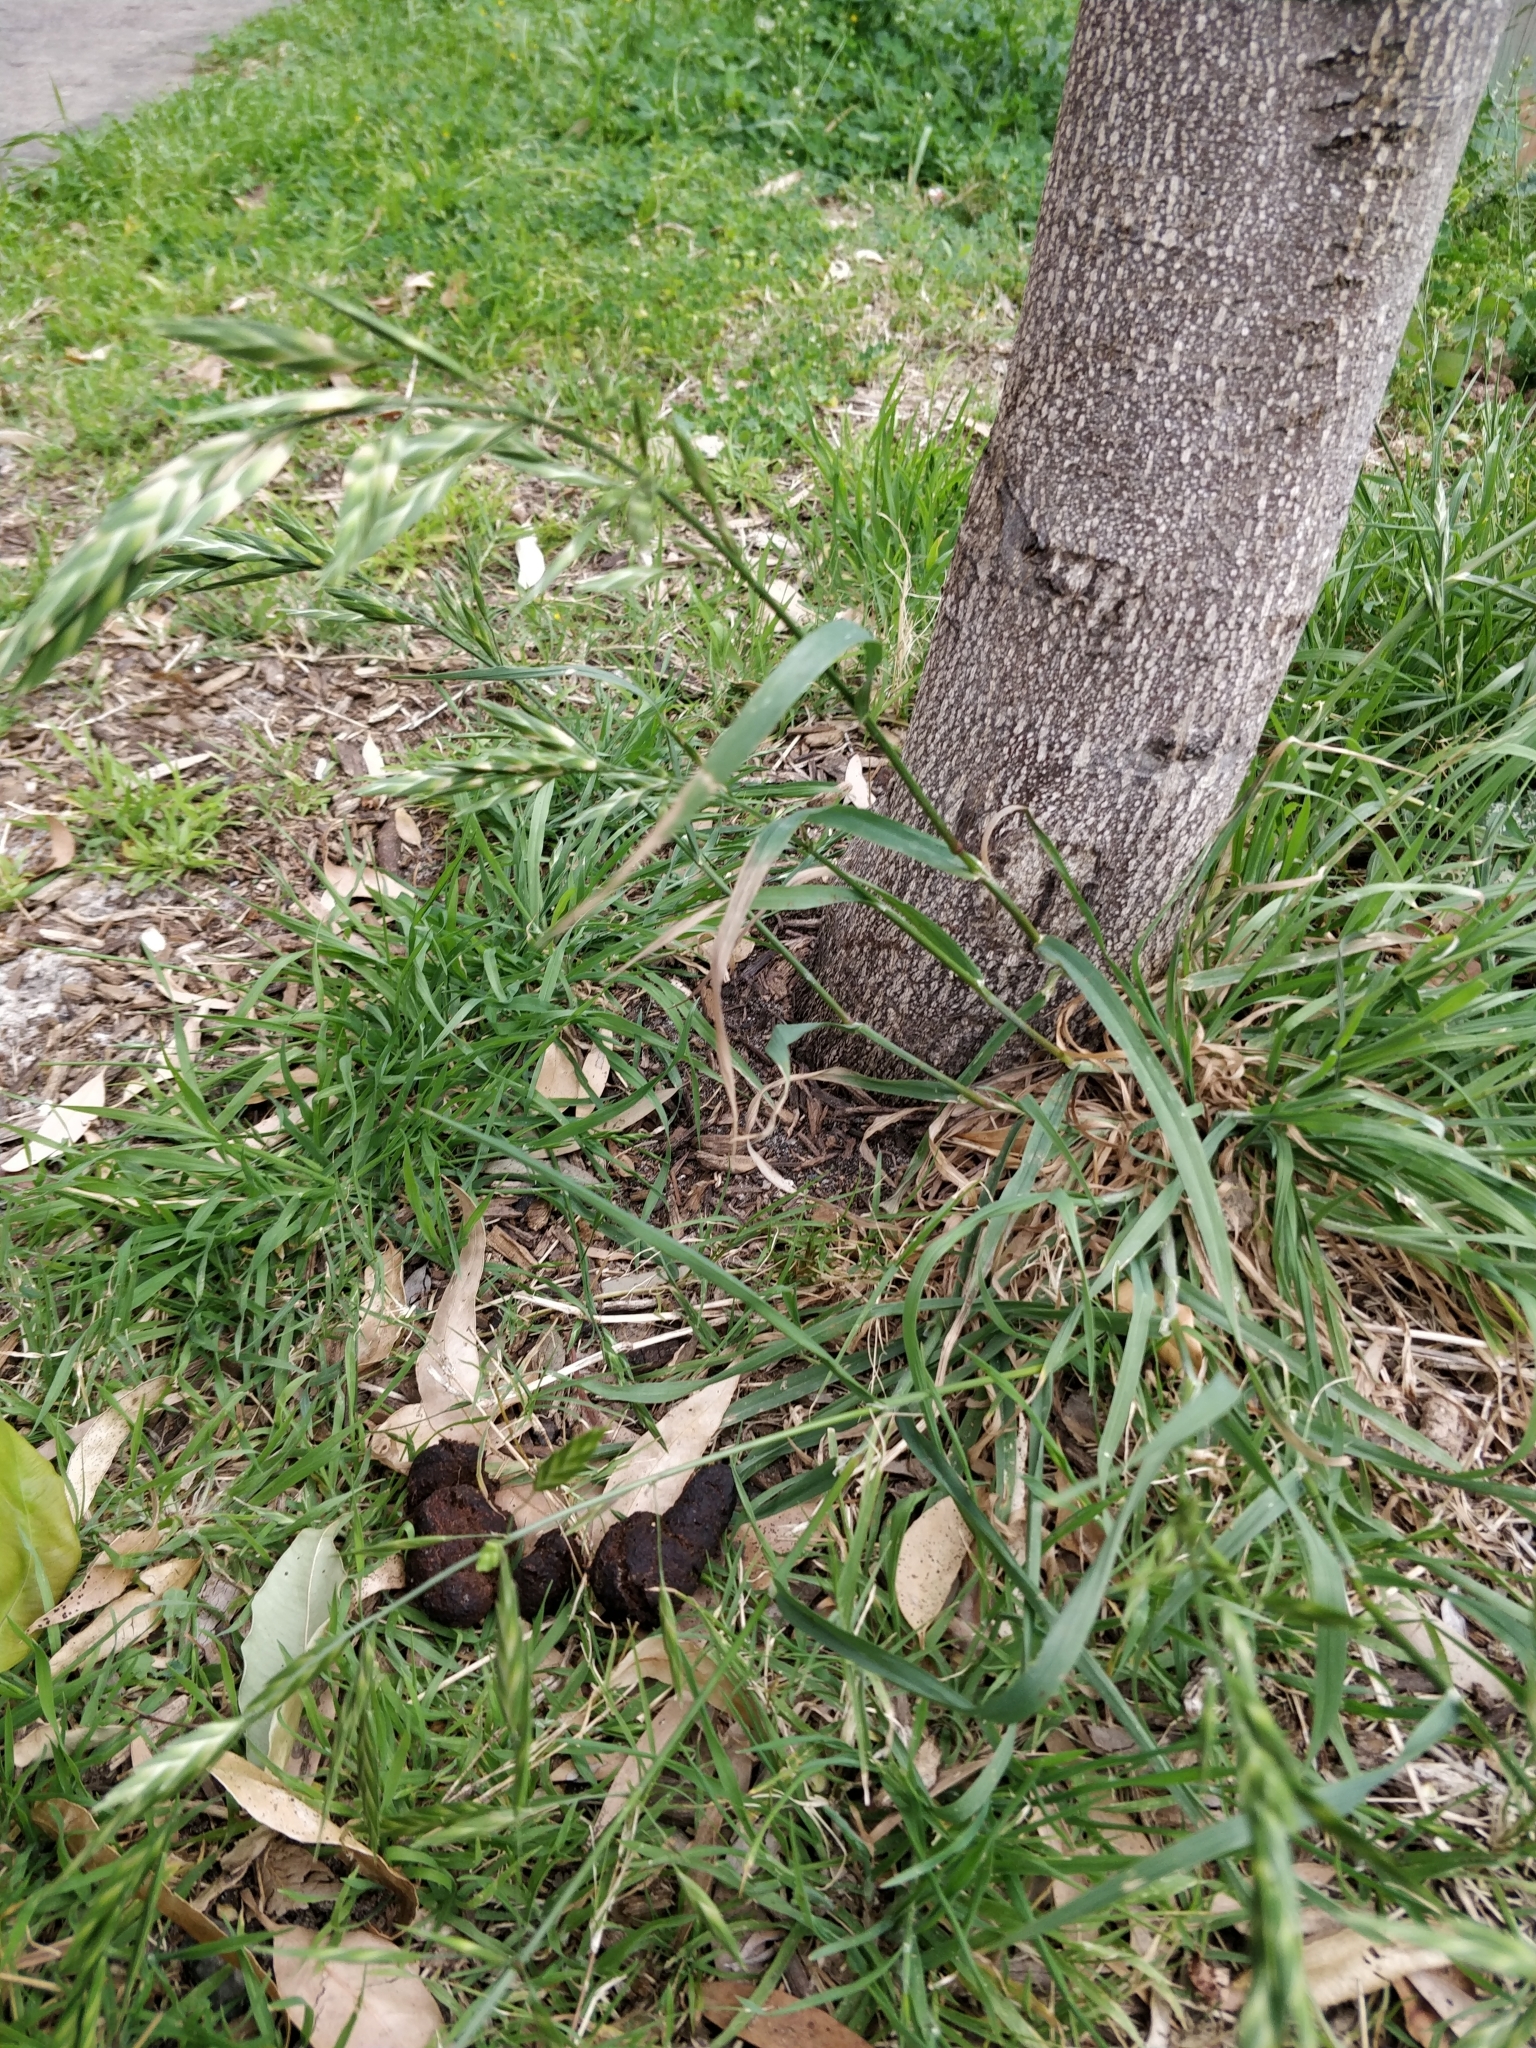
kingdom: Plantae
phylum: Tracheophyta
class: Liliopsida
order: Poales
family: Poaceae
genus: Bromus
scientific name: Bromus catharticus
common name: Rescuegrass
